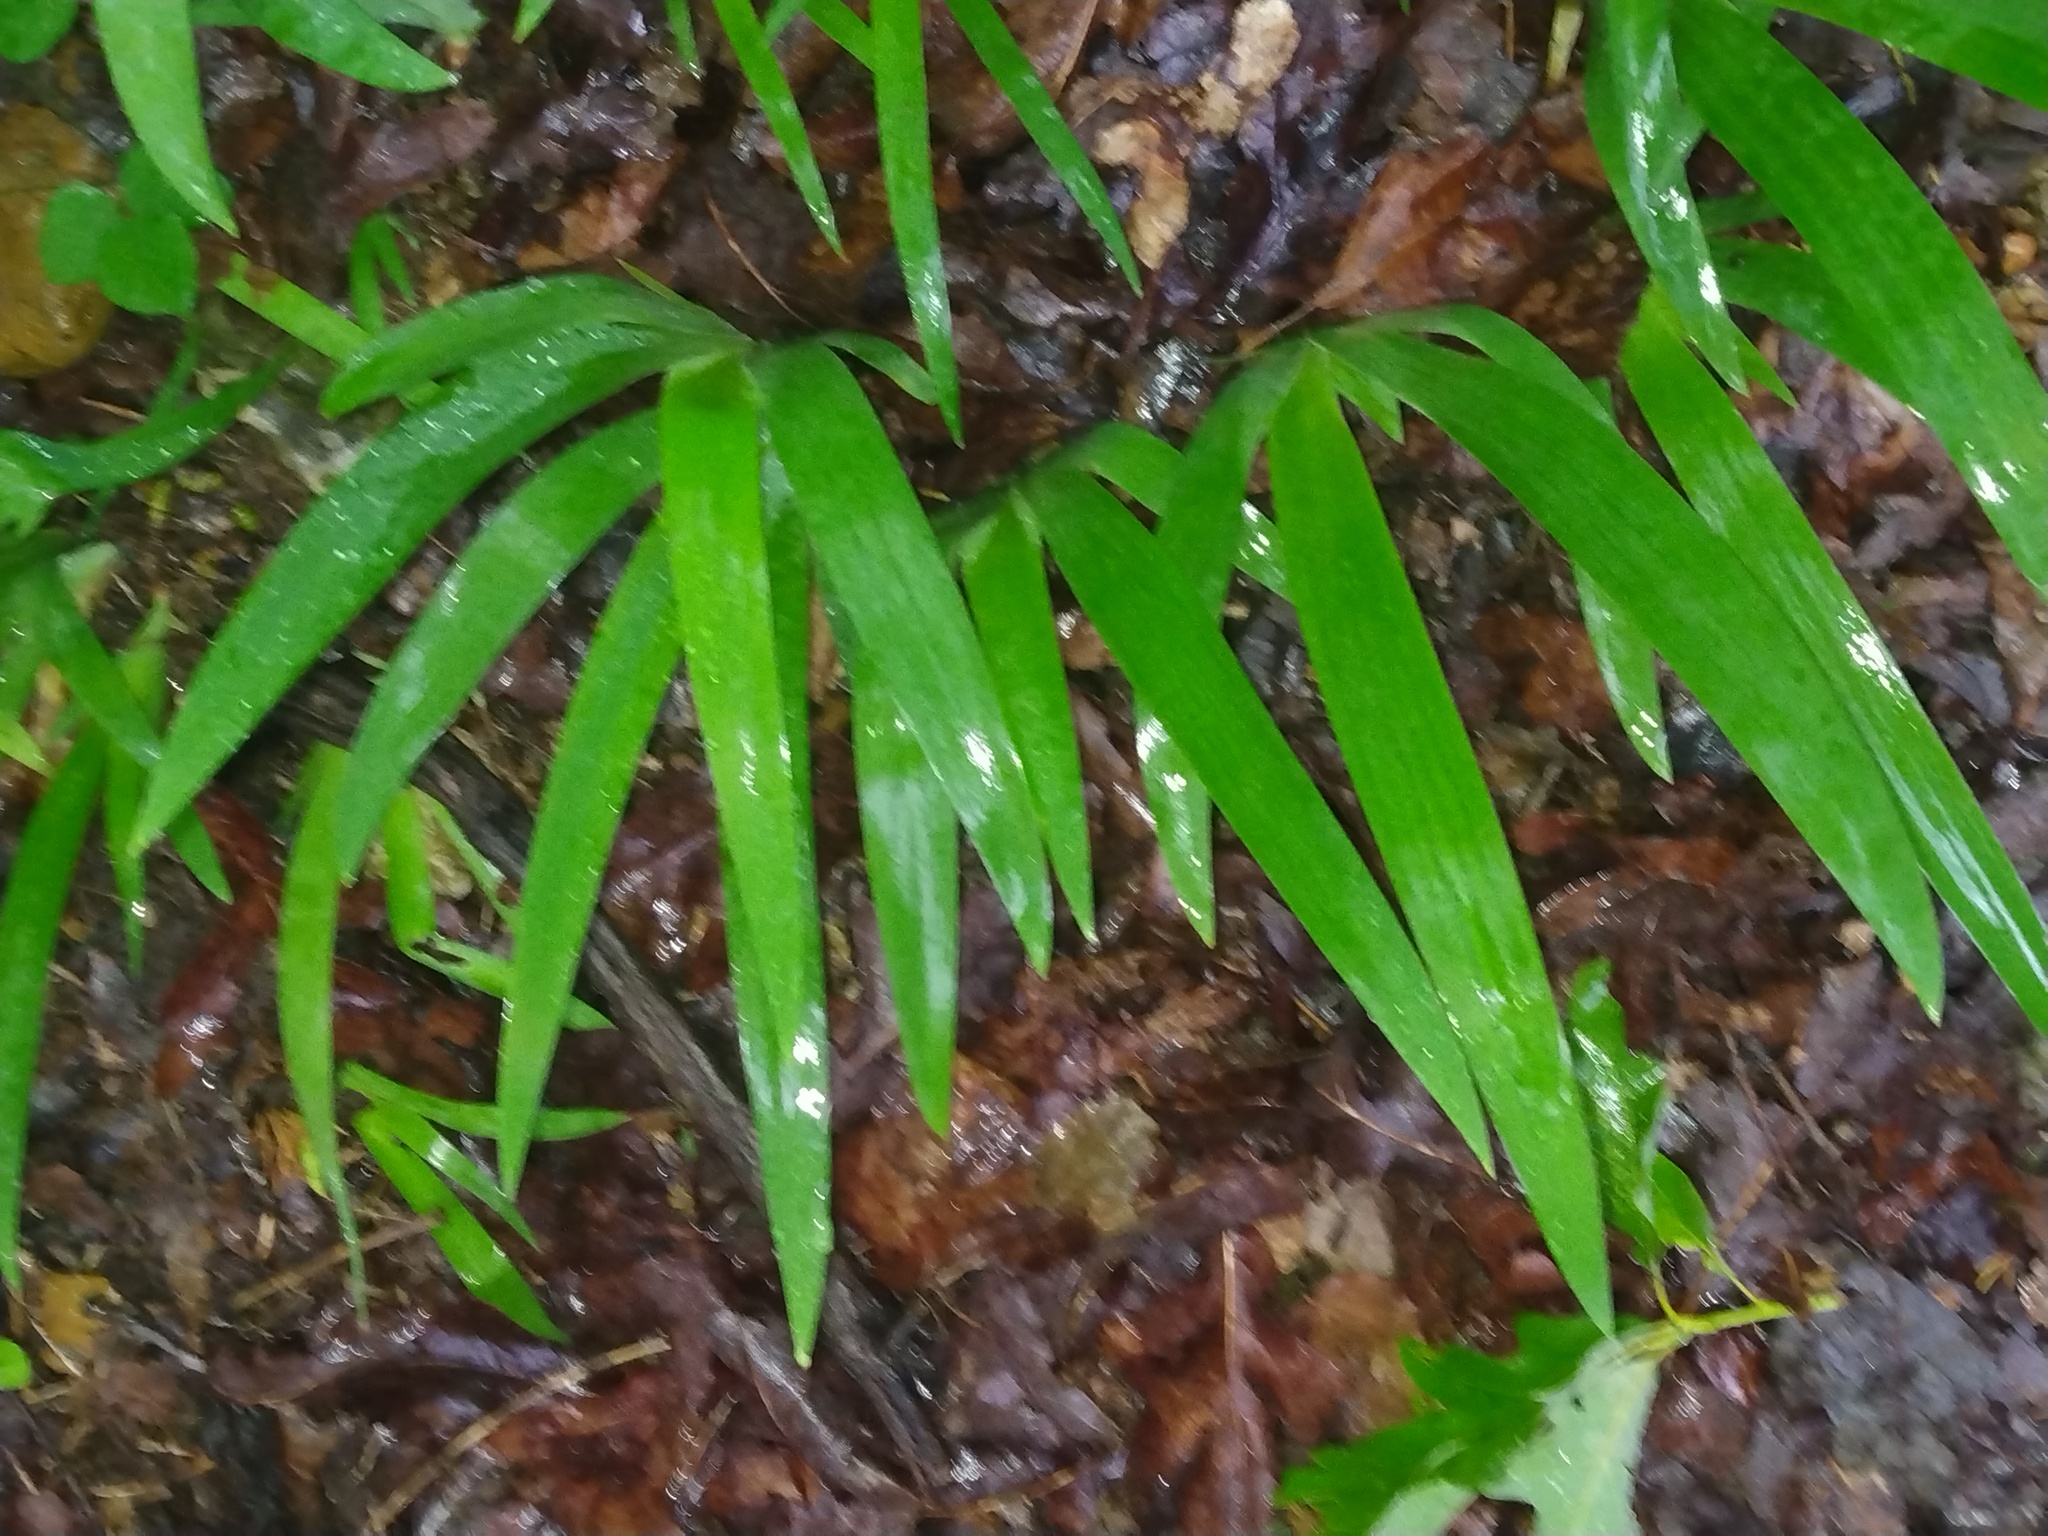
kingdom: Plantae
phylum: Tracheophyta
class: Liliopsida
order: Asparagales
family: Iridaceae
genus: Iris
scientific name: Iris cristata
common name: Crested iris
